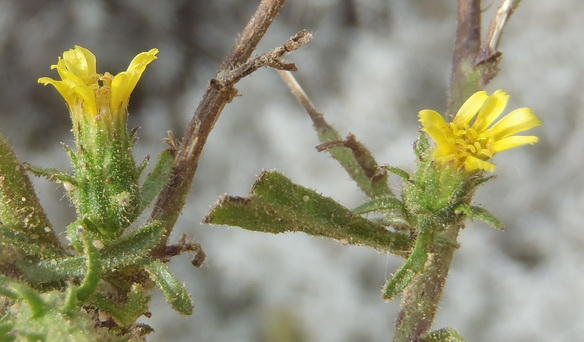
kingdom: Plantae
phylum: Tracheophyta
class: Magnoliopsida
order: Asterales
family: Asteraceae
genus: Dittrichia
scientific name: Dittrichia graveolens
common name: Stinking fleabane
